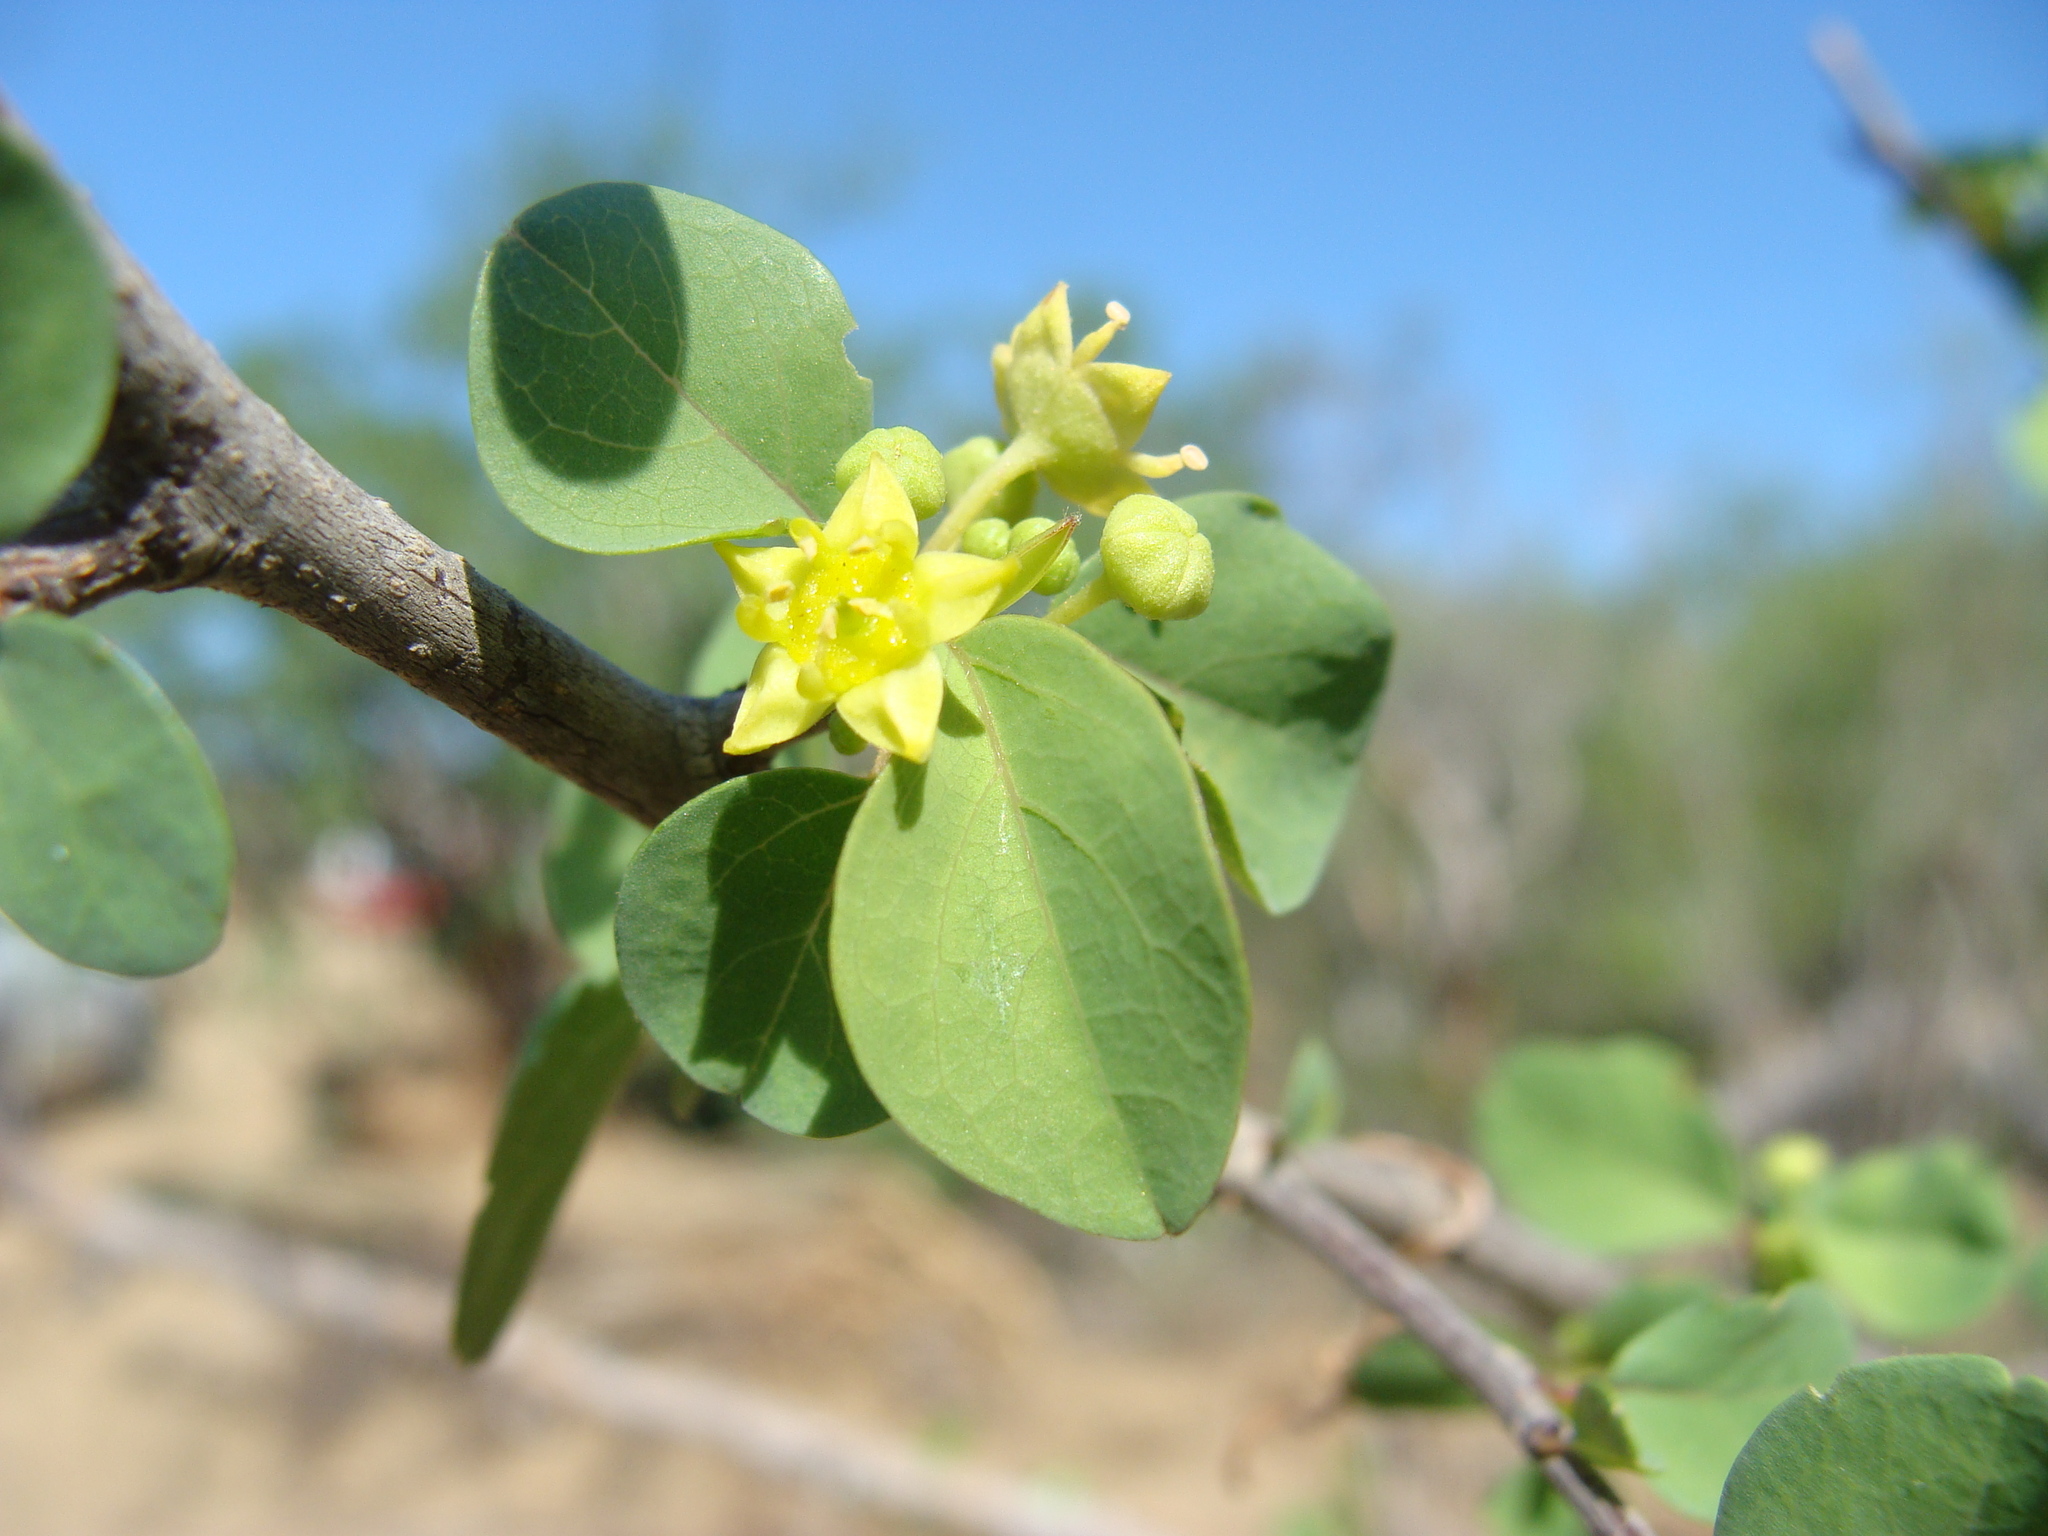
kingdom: Plantae
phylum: Tracheophyta
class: Magnoliopsida
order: Rosales
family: Rhamnaceae
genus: Colubrina
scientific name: Colubrina viridis
